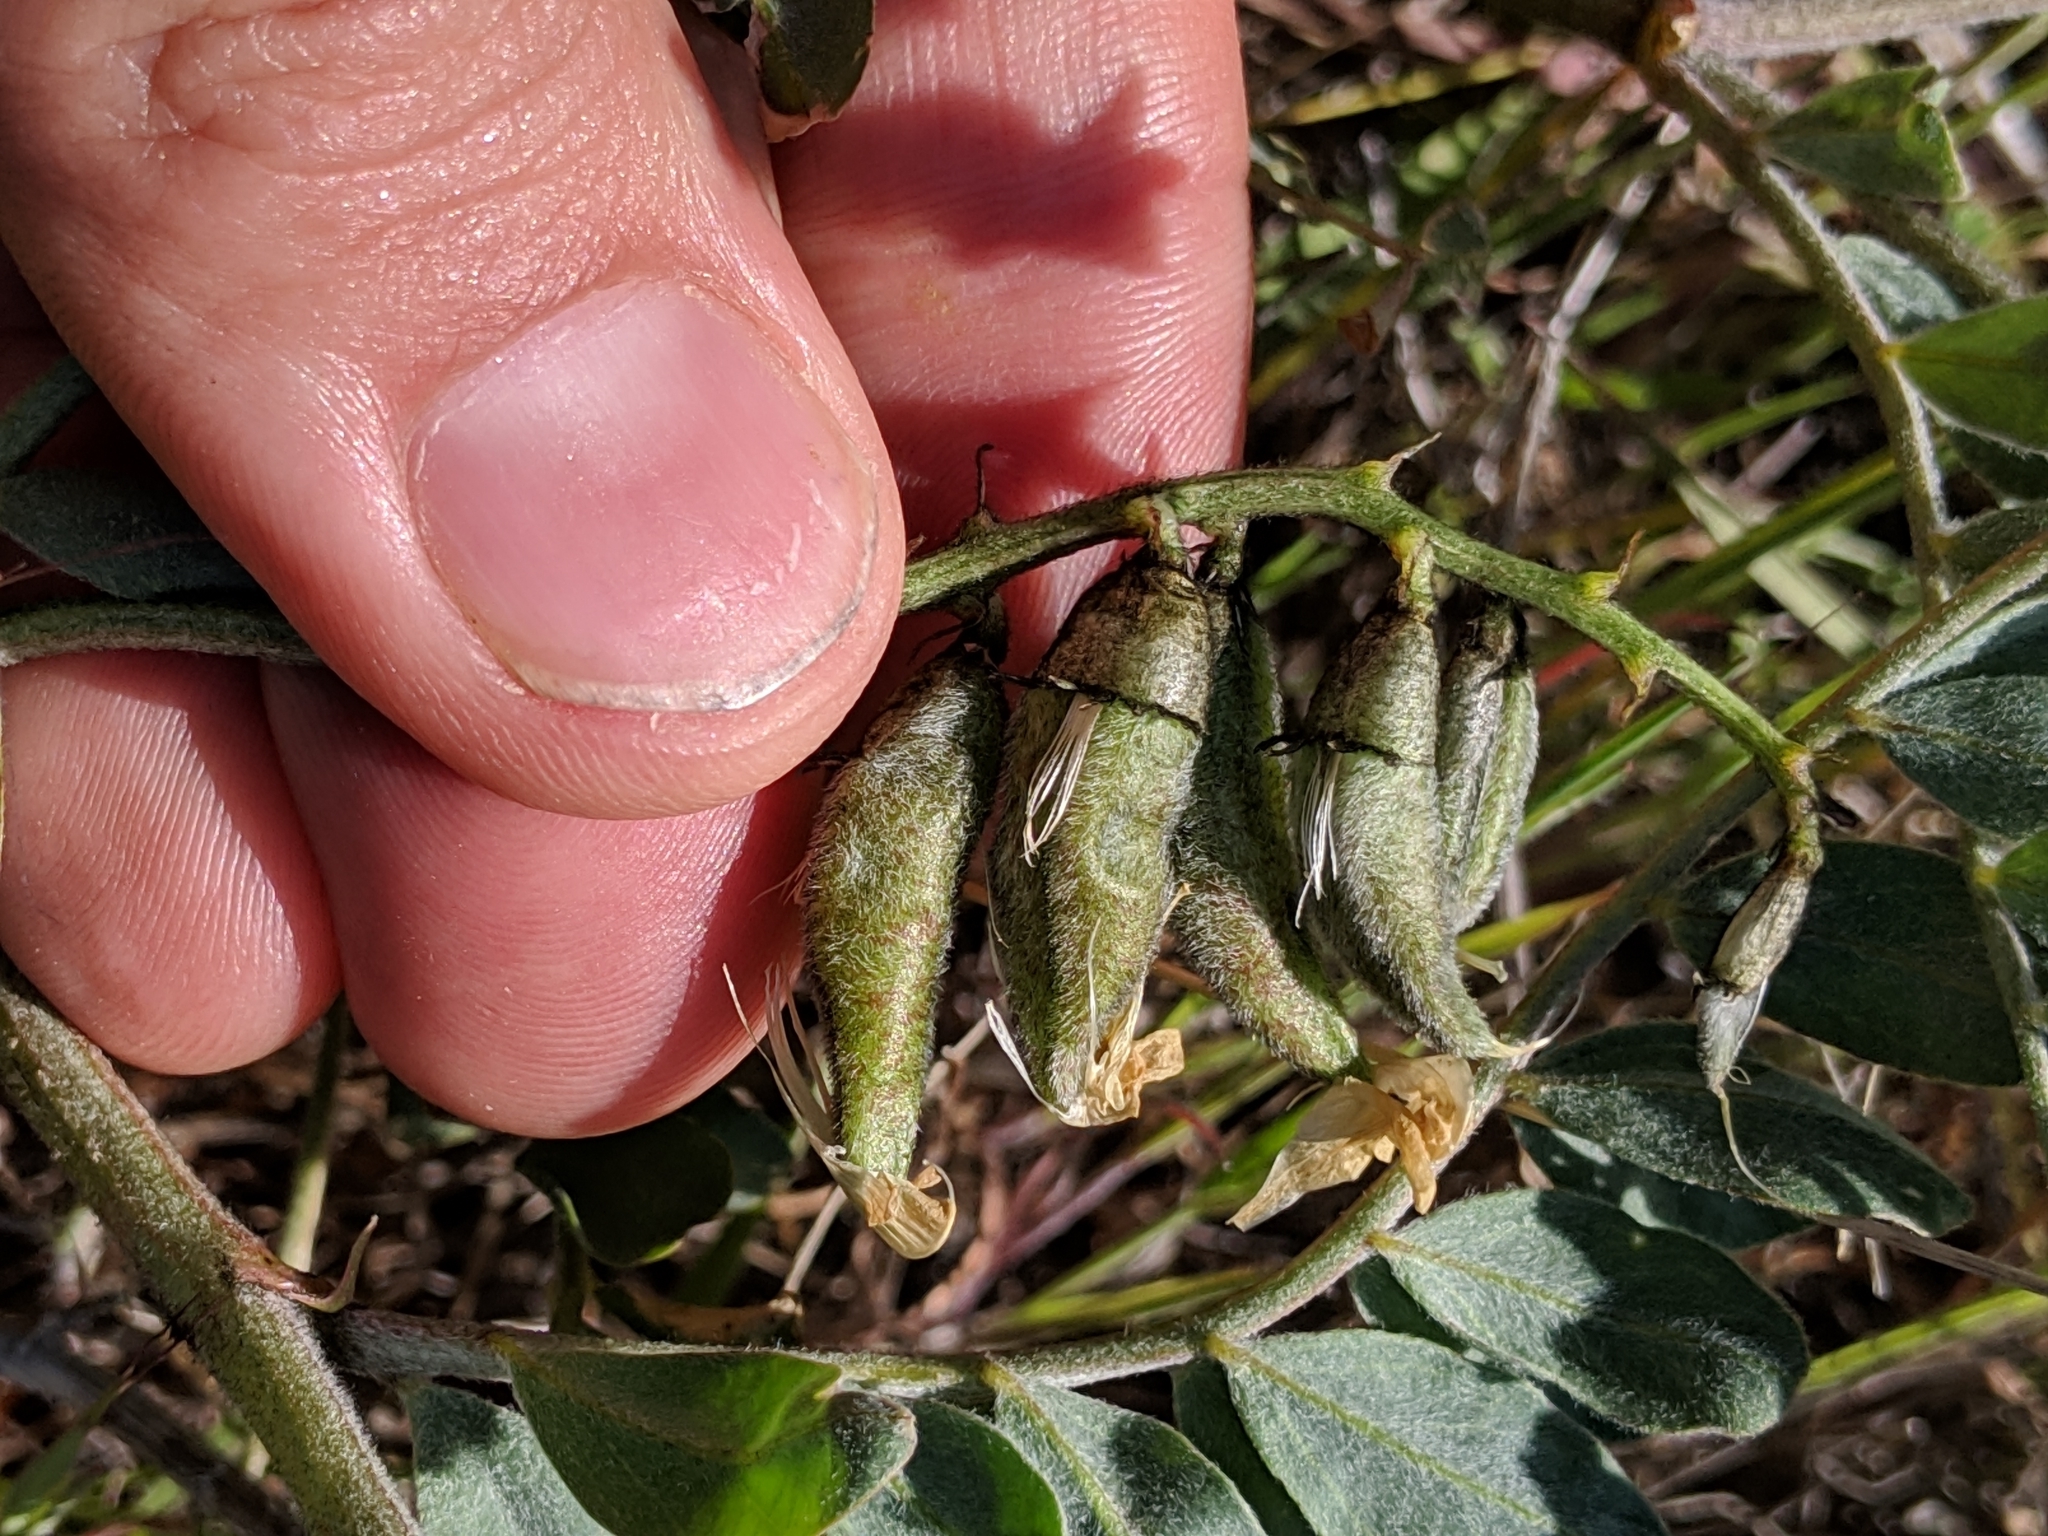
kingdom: Plantae
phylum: Tracheophyta
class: Magnoliopsida
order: Fabales
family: Fabaceae
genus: Astragalus
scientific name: Astragalus lentiginosus
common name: Freckled milkvetch
